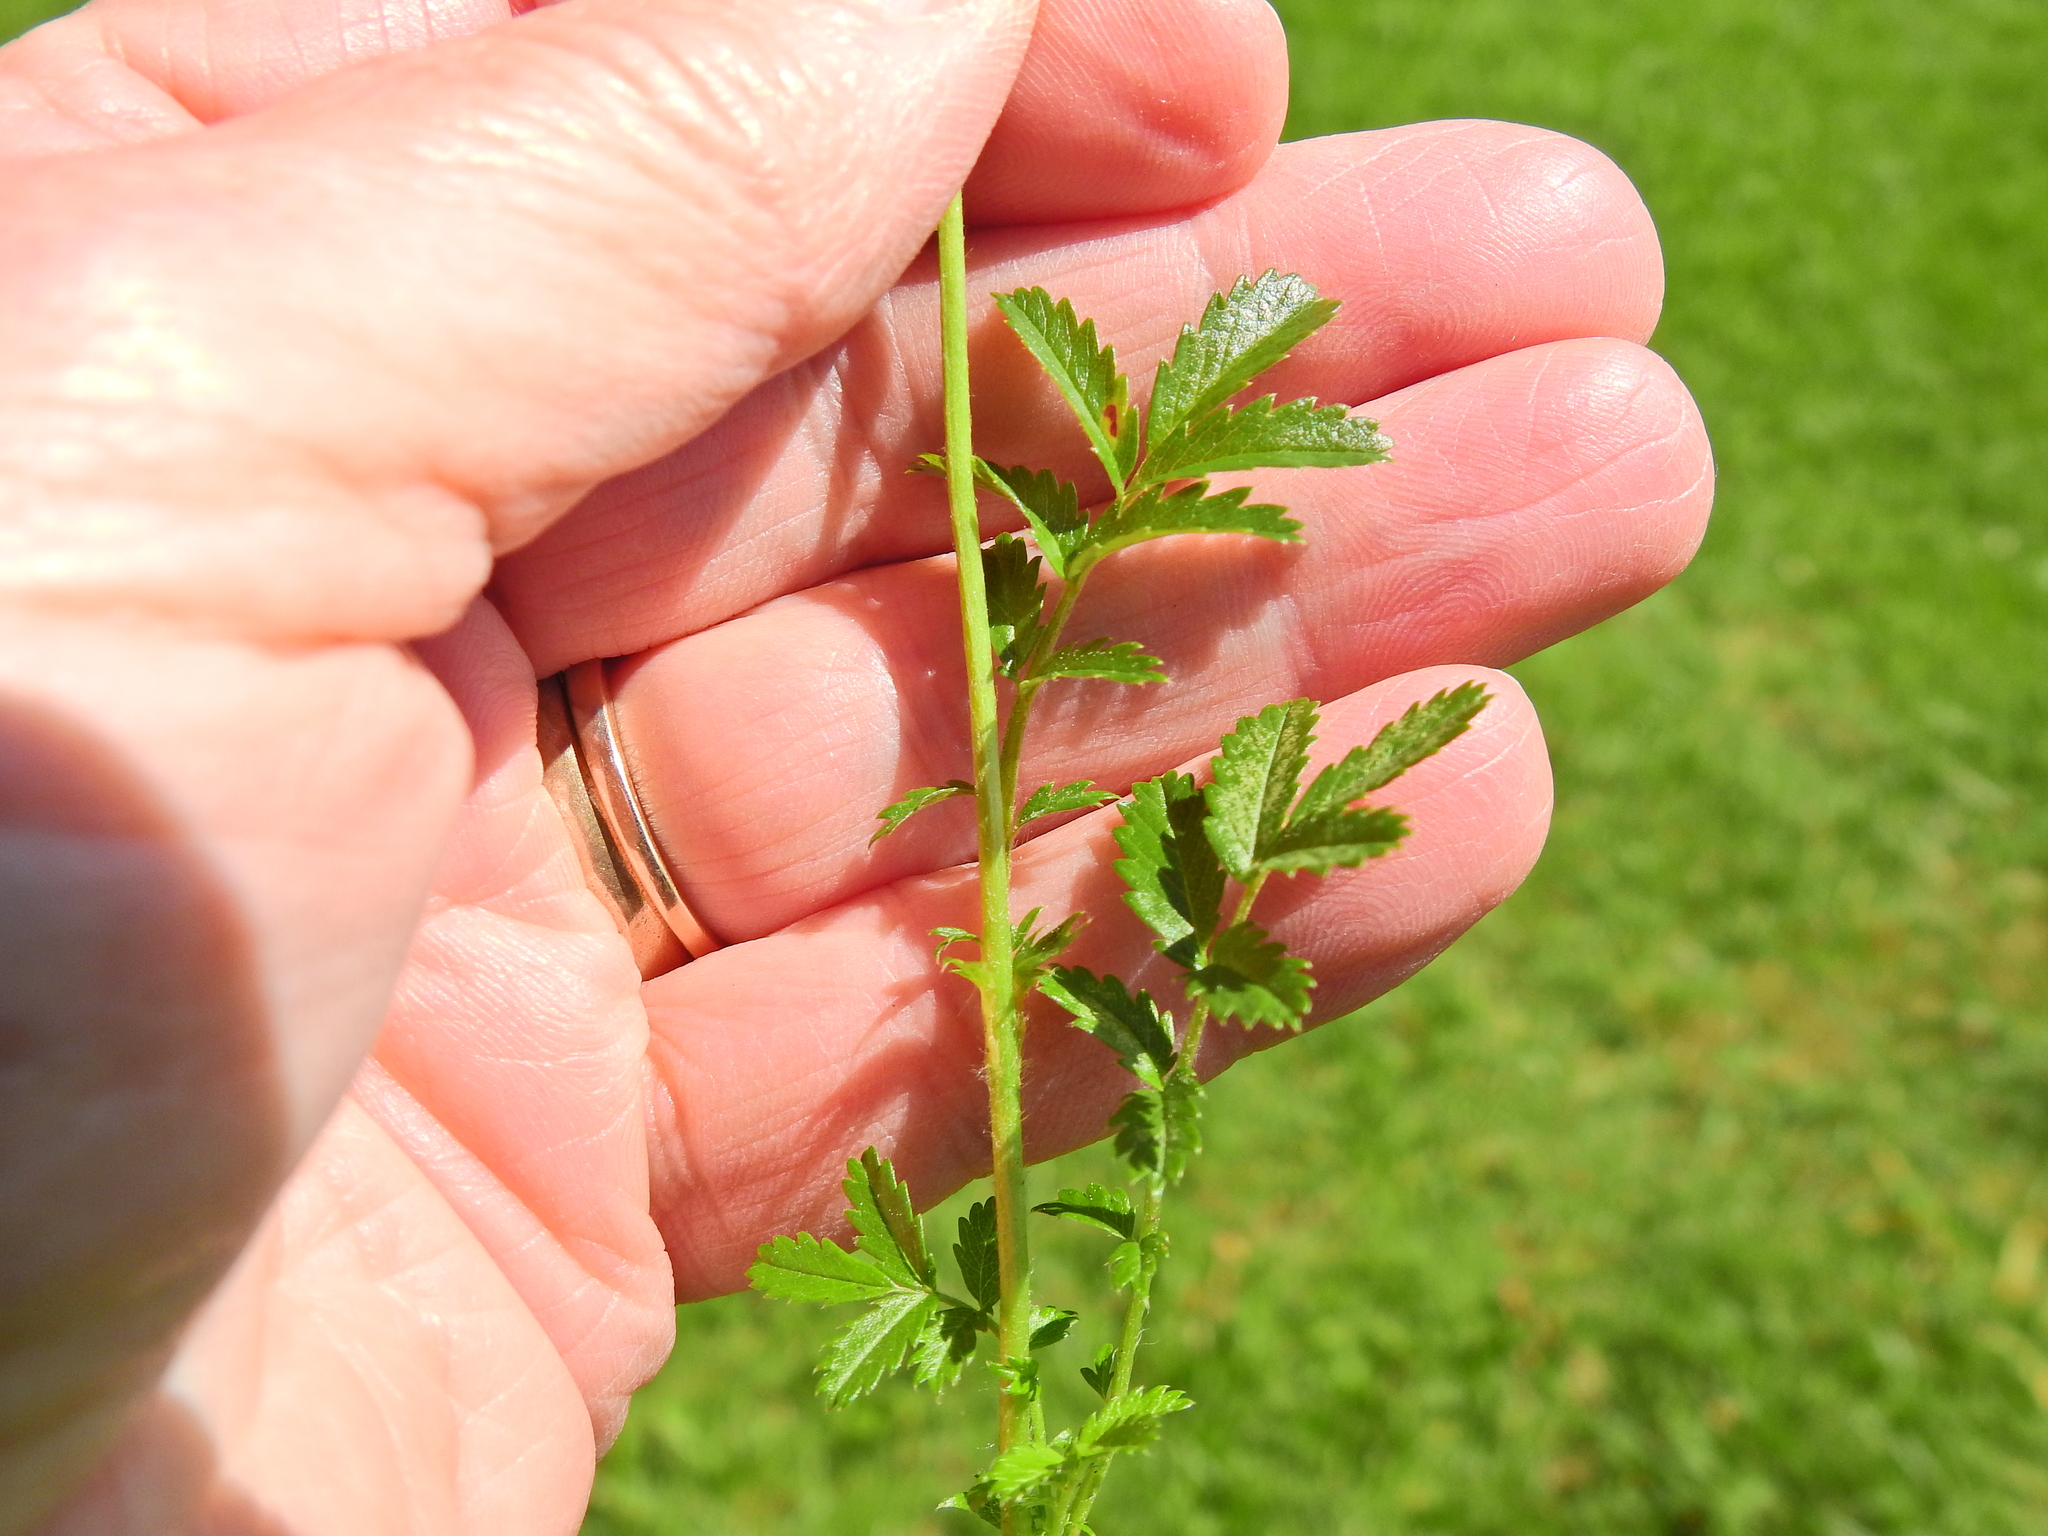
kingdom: Plantae
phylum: Tracheophyta
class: Magnoliopsida
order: Rosales
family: Rosaceae
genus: Acaena
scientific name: Acaena novae-zelandiae
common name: Pirri-pirri-bur
